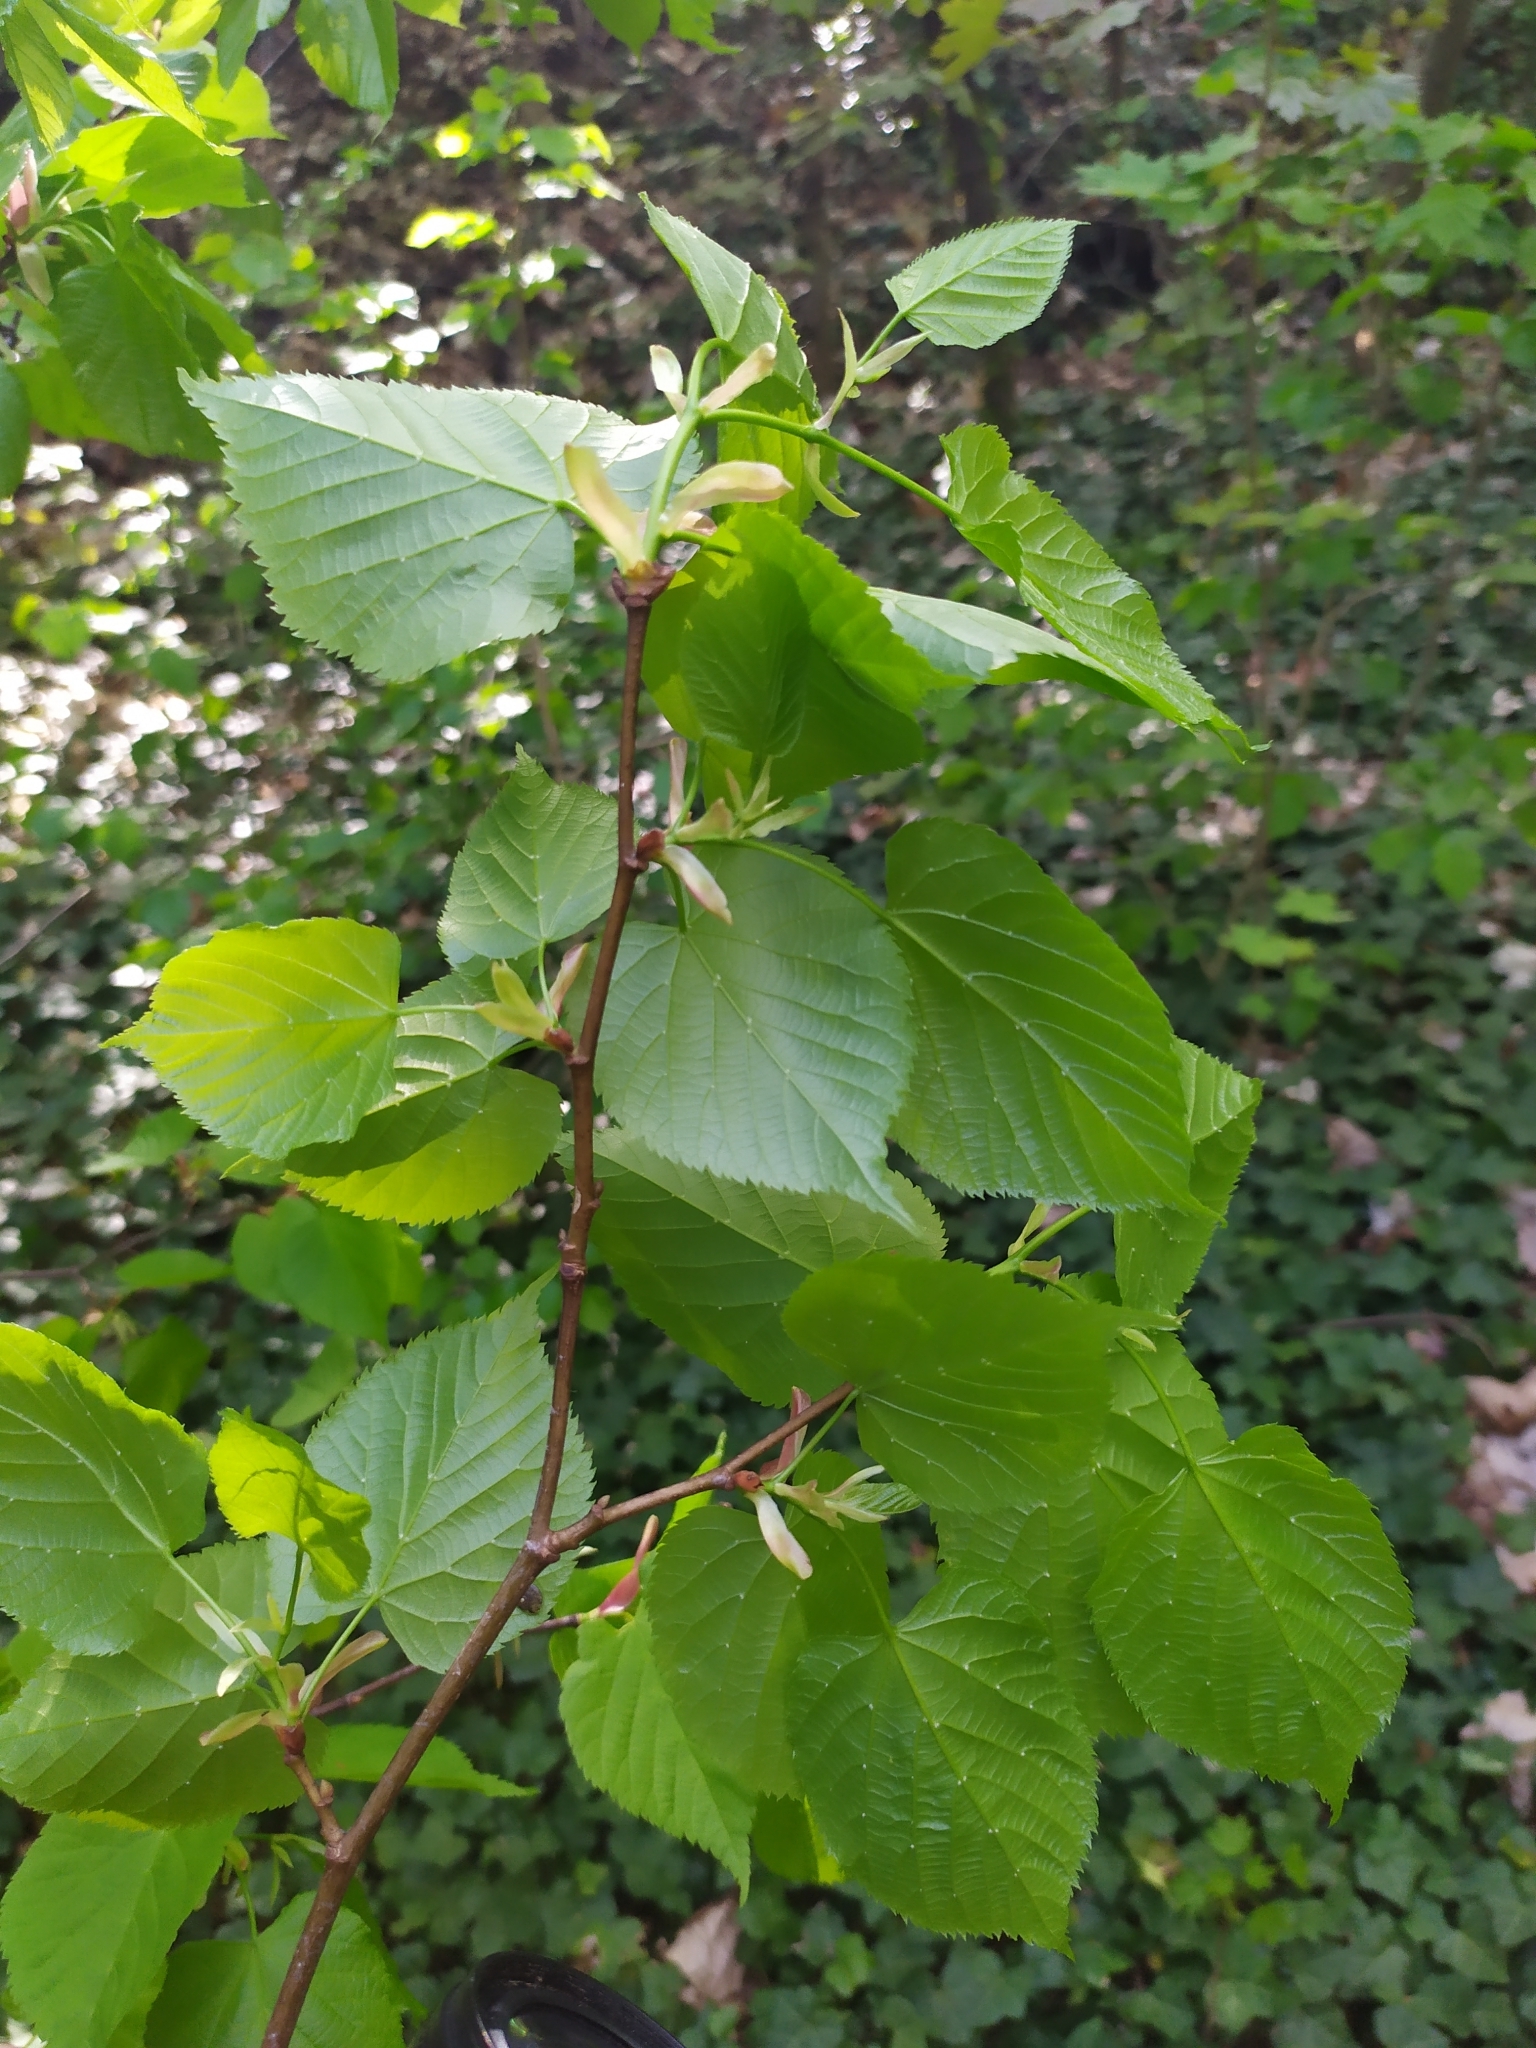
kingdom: Plantae
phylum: Tracheophyta
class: Magnoliopsida
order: Malvales
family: Malvaceae
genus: Tilia
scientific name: Tilia platyphyllos
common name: Large-leaved lime
